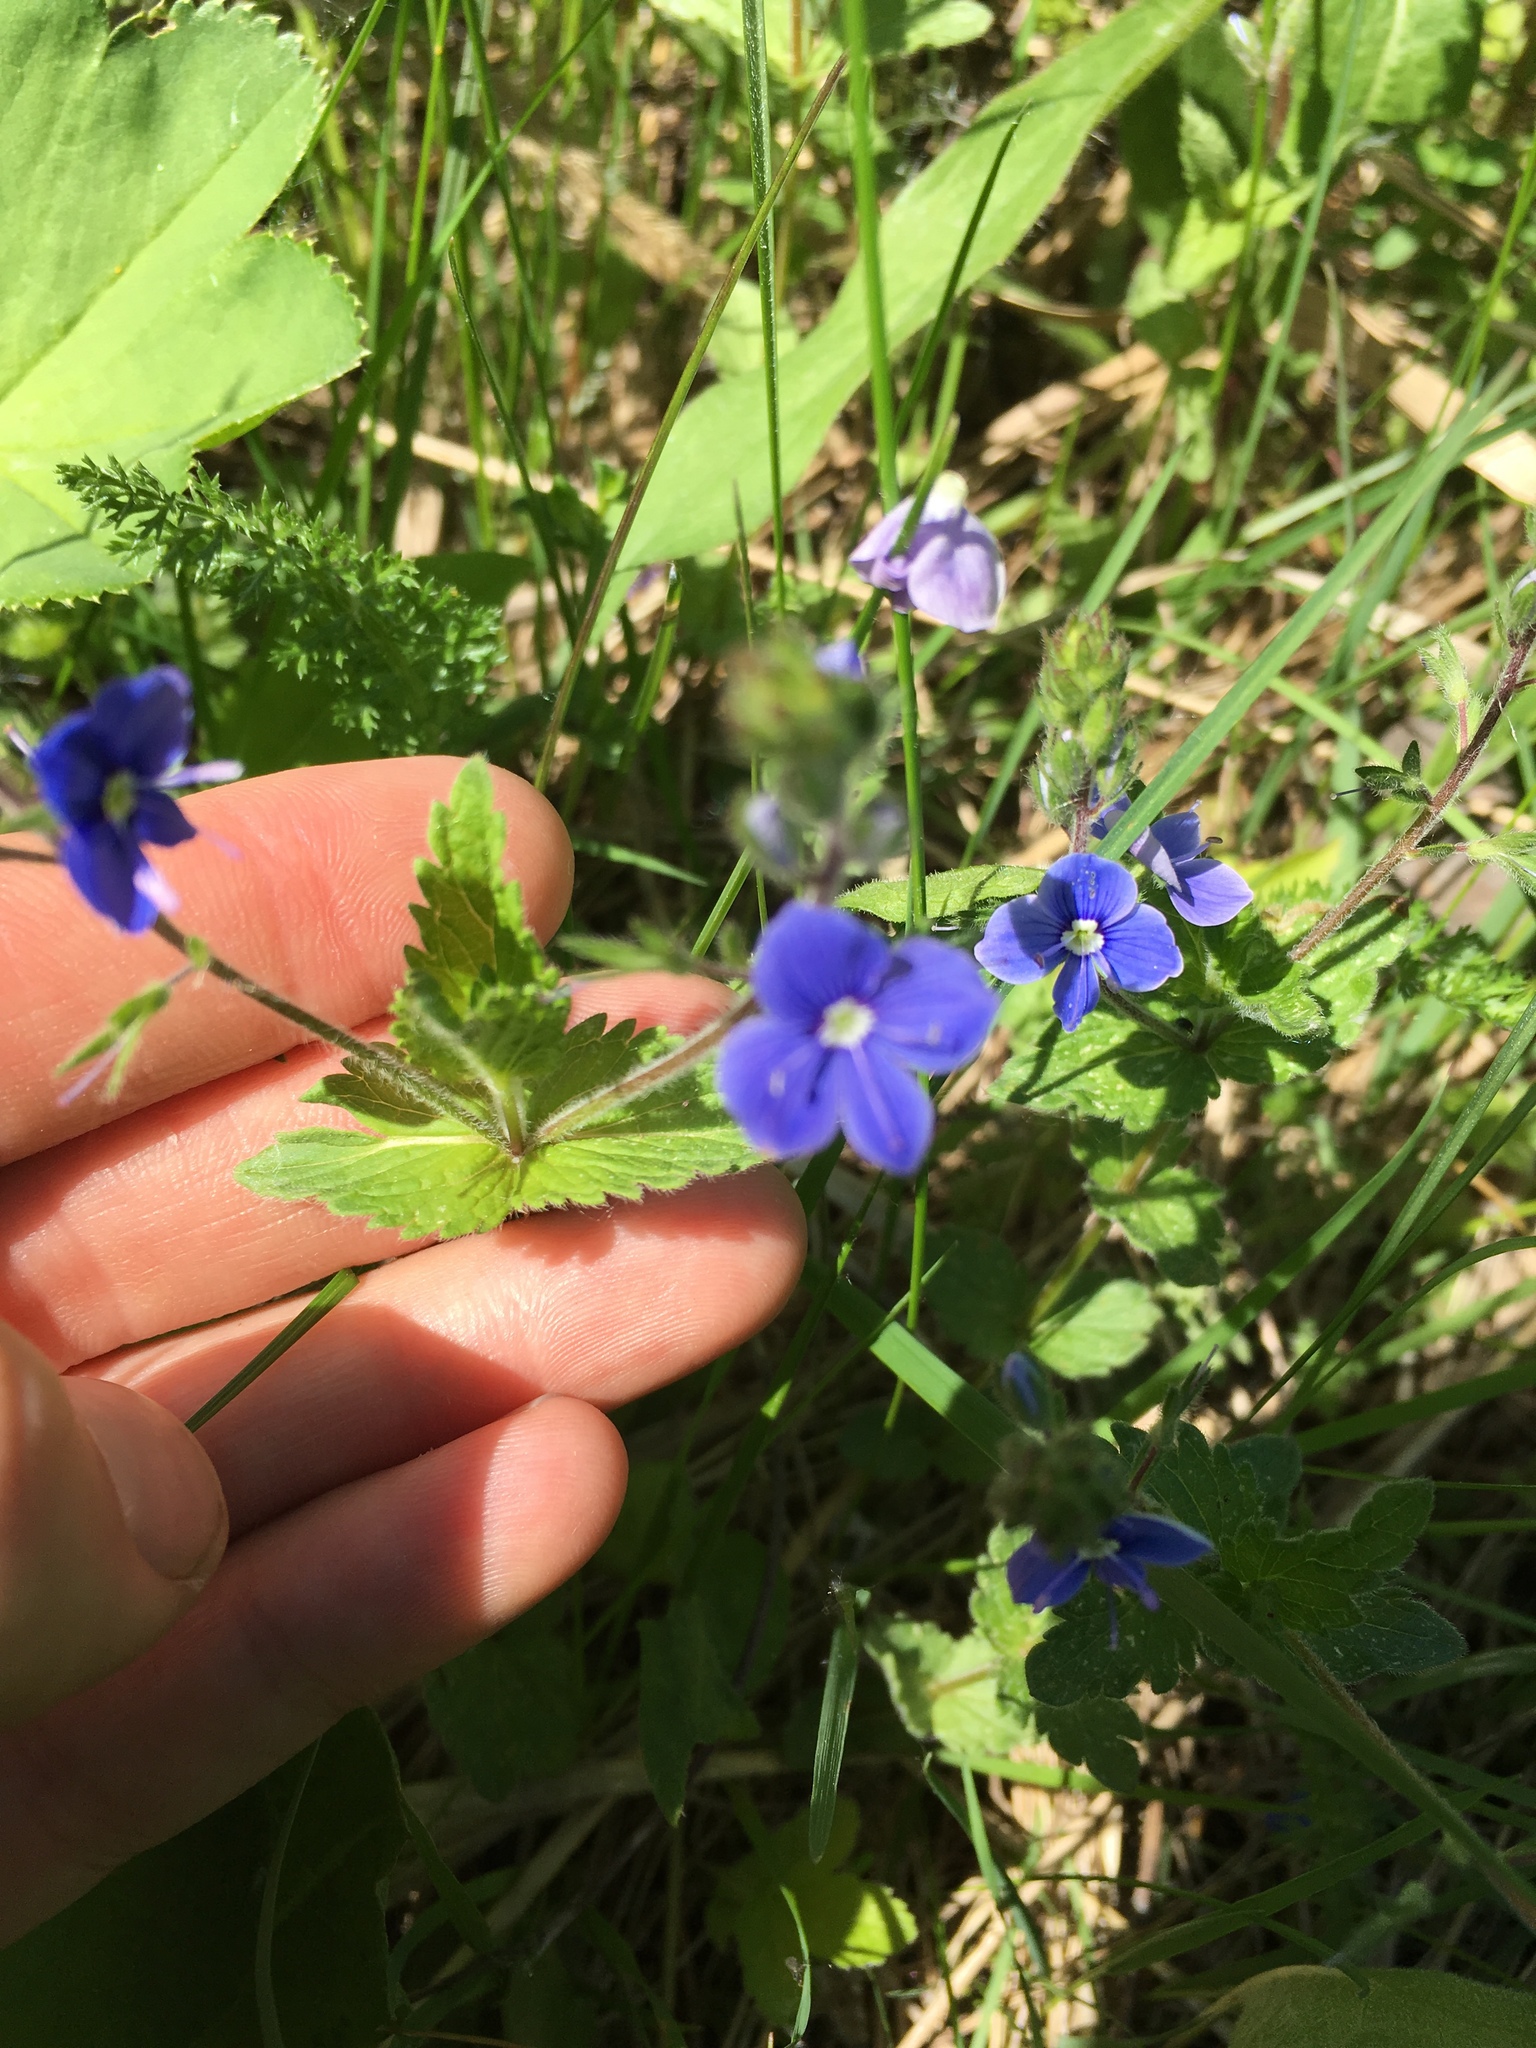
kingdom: Plantae
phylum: Tracheophyta
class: Magnoliopsida
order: Lamiales
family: Plantaginaceae
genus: Veronica
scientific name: Veronica chamaedrys
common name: Germander speedwell
